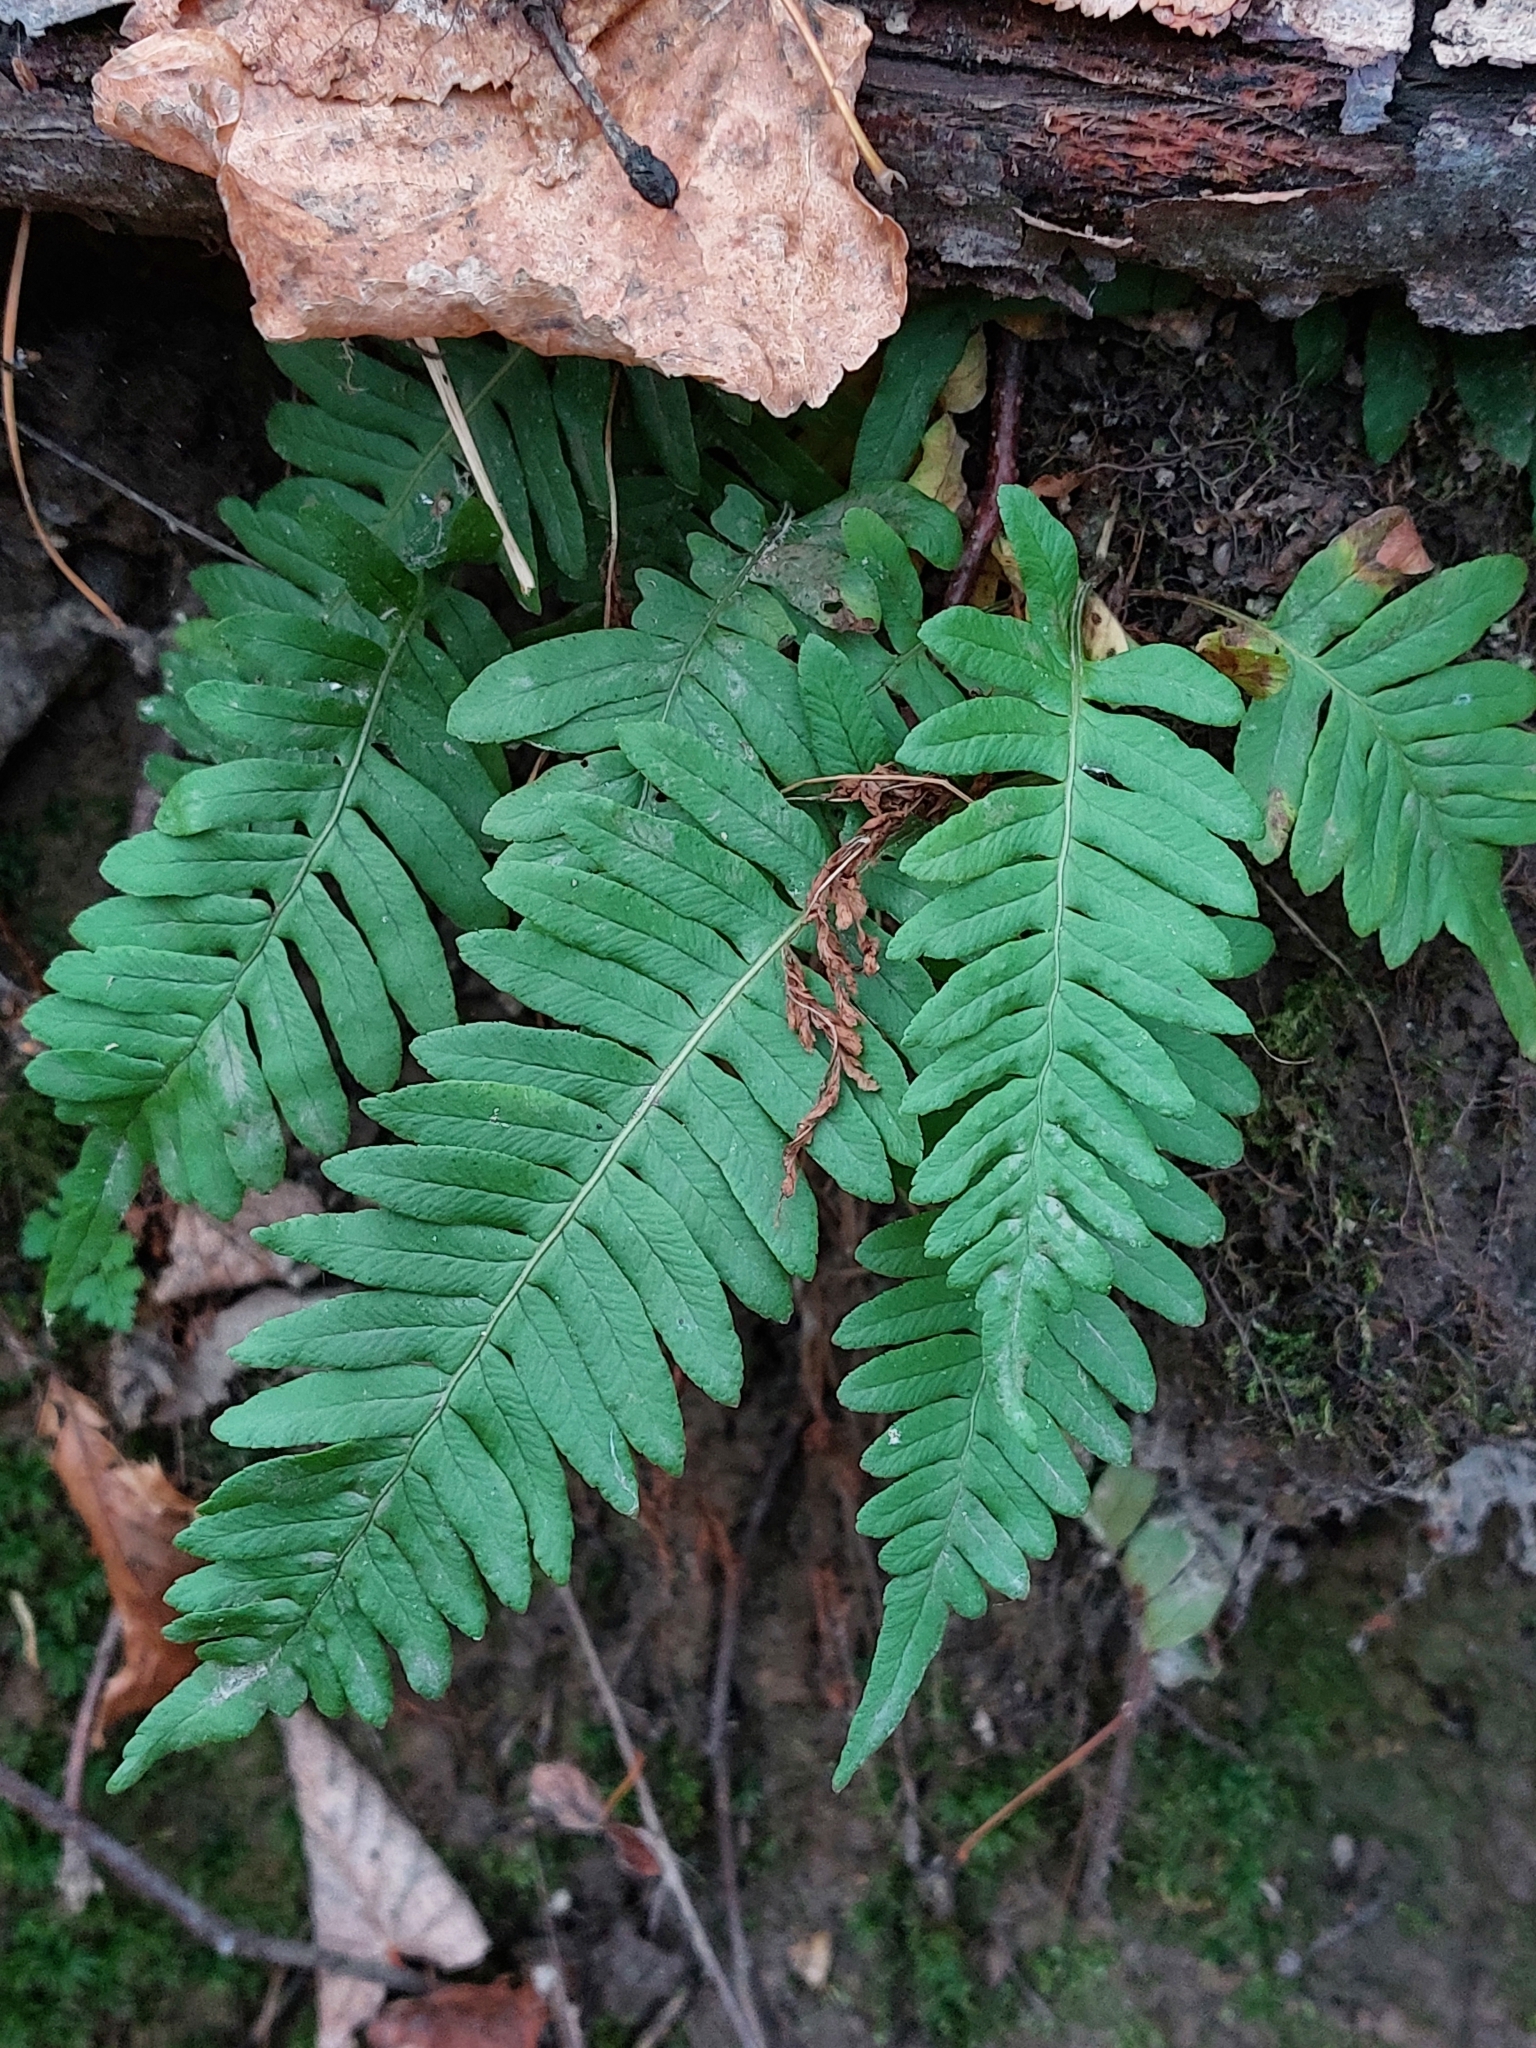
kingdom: Plantae
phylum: Tracheophyta
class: Polypodiopsida
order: Polypodiales
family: Polypodiaceae
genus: Polypodium
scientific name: Polypodium vulgare
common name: Common polypody
